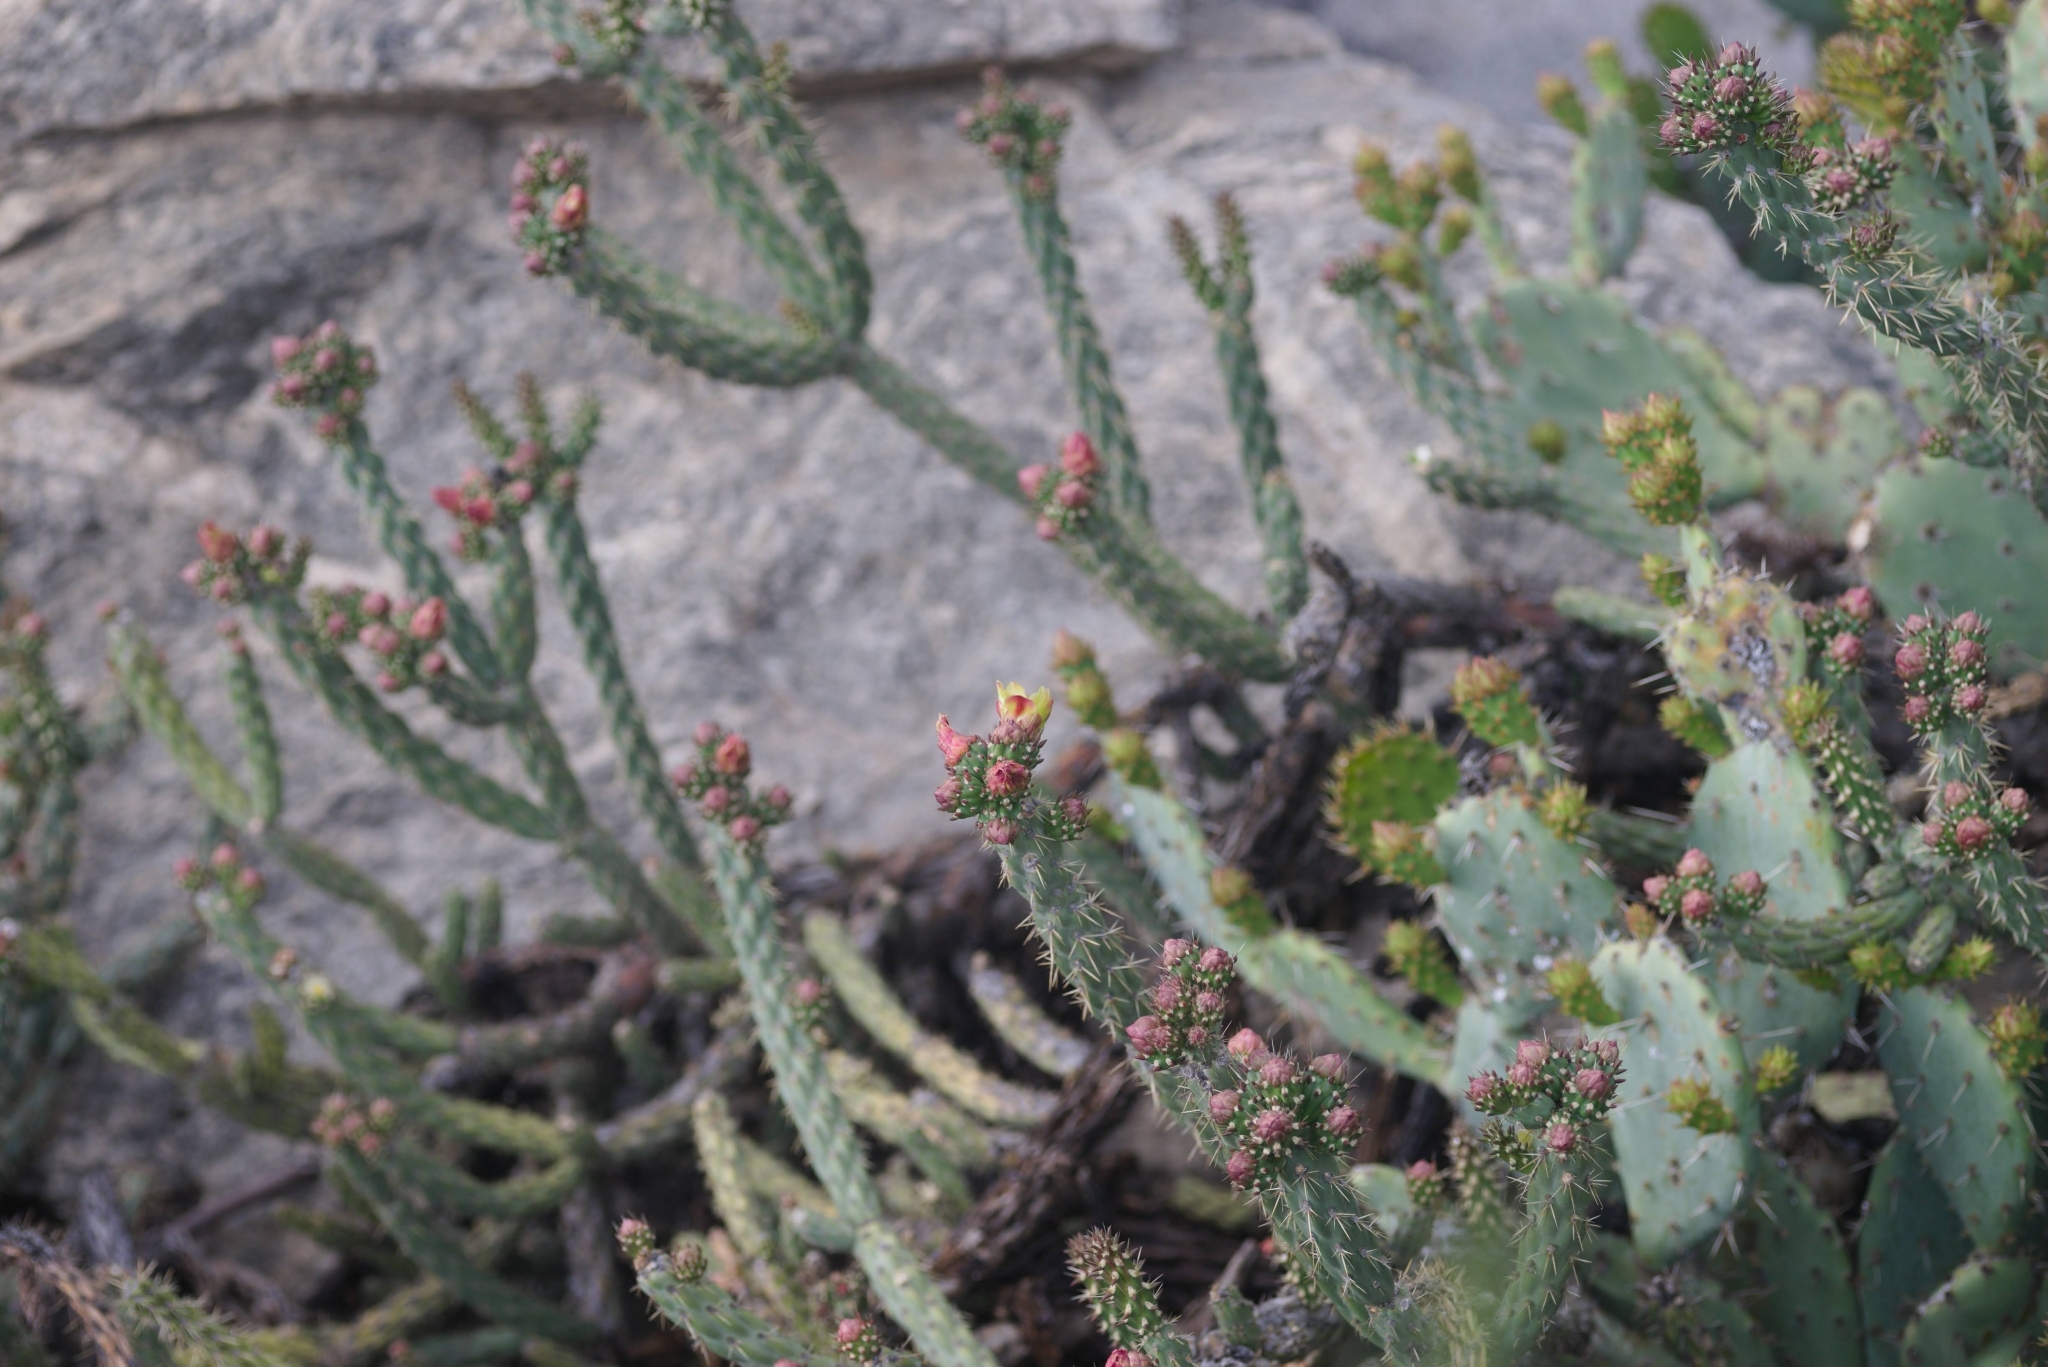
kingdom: Plantae
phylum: Tracheophyta
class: Magnoliopsida
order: Caryophyllales
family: Cactaceae
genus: Cylindropuntia
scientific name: Cylindropuntia bernardina
